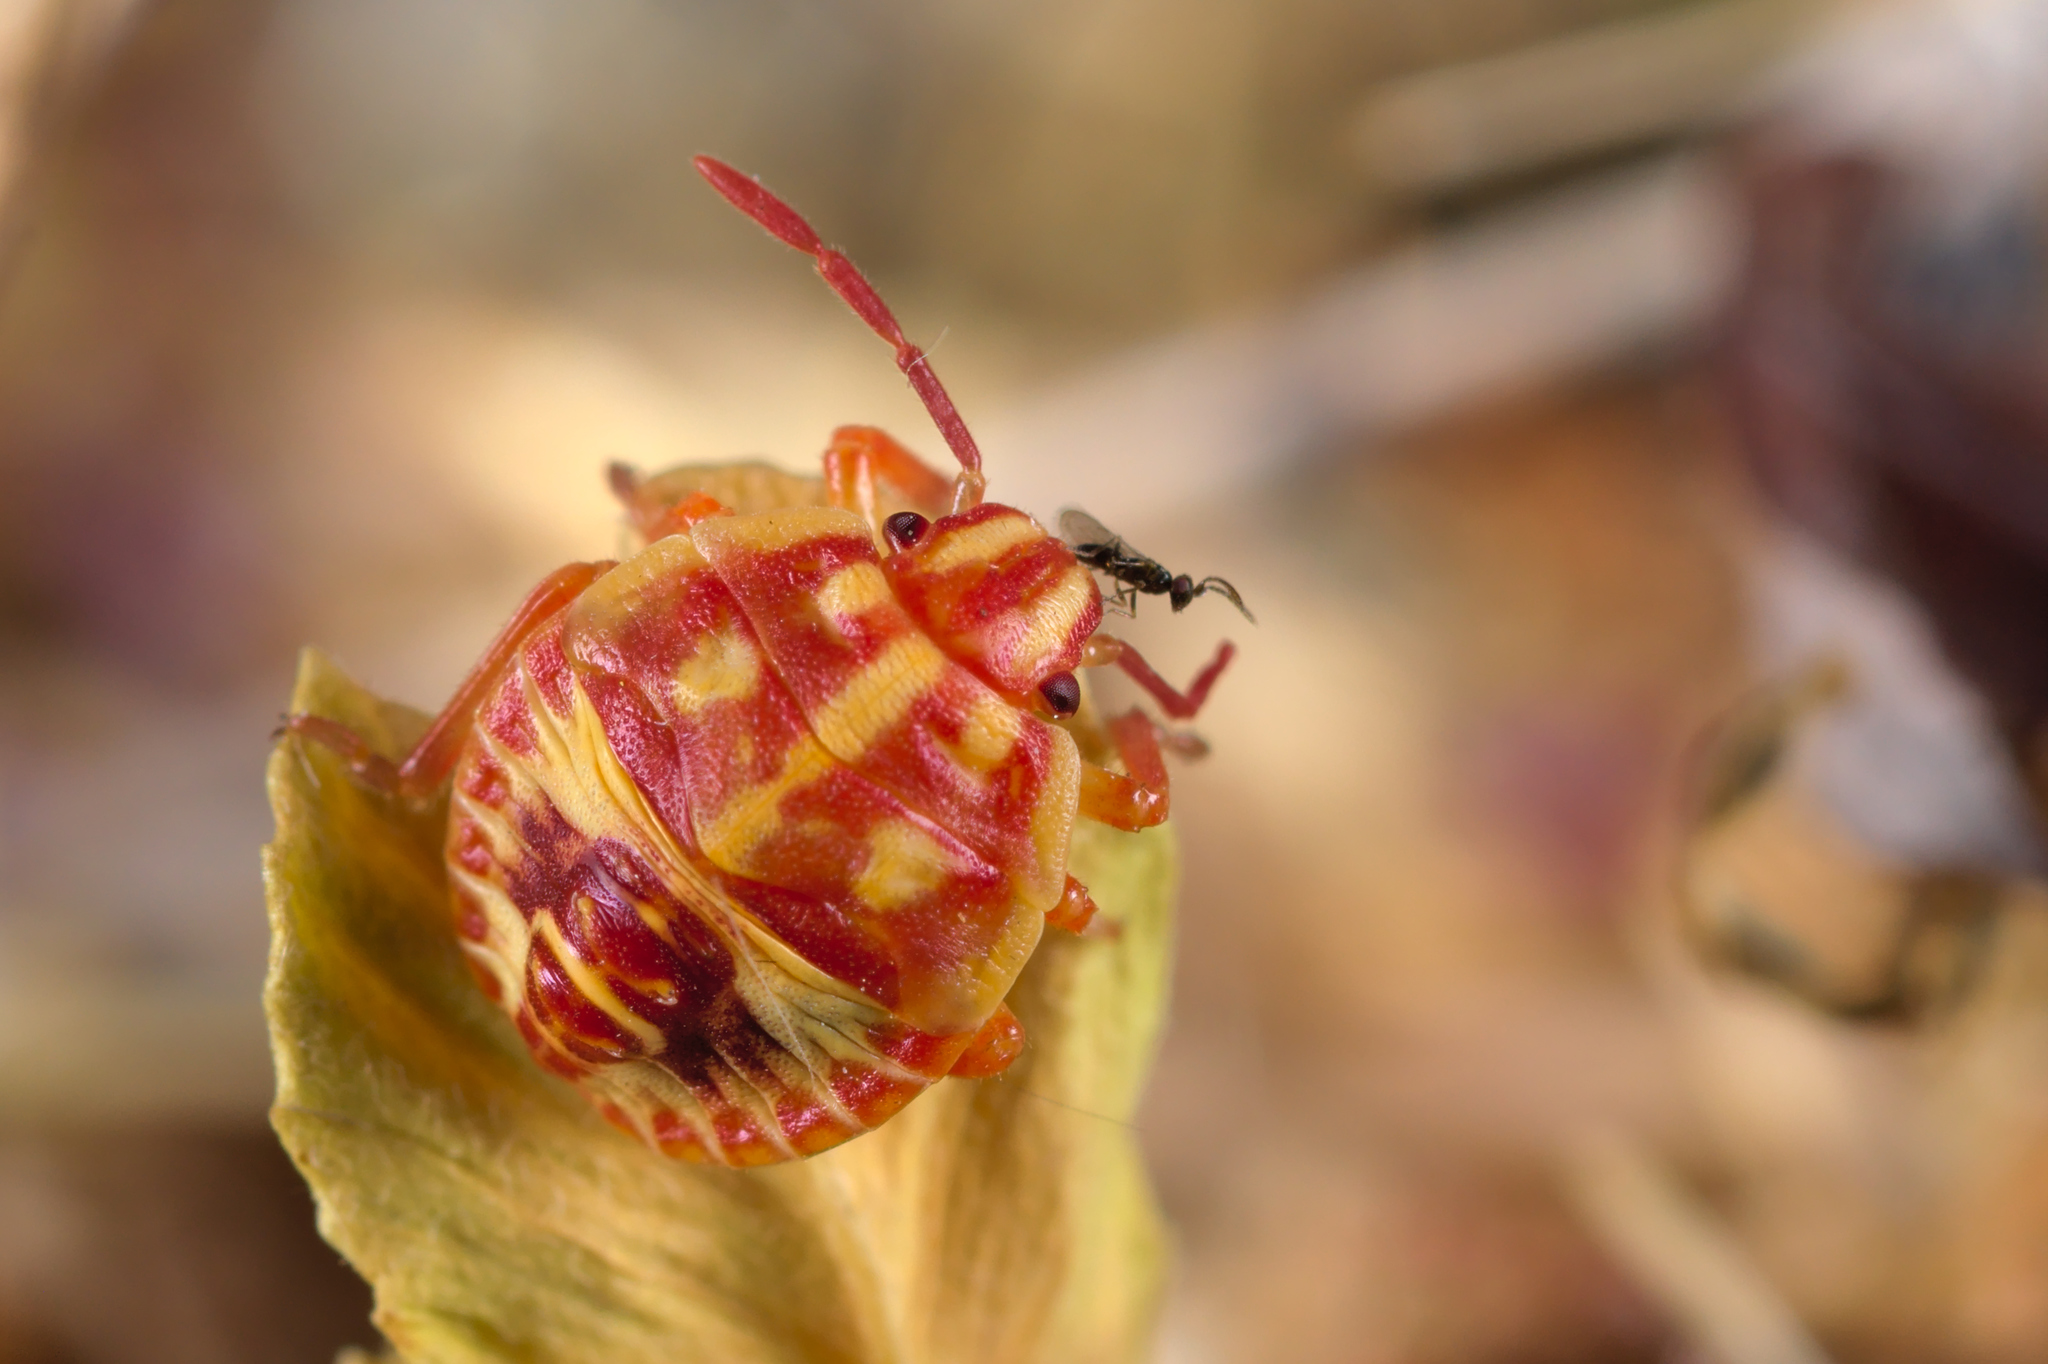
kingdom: Animalia
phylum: Arthropoda
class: Insecta
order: Hemiptera
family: Pentatomidae
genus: Carpocoris
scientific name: Carpocoris
